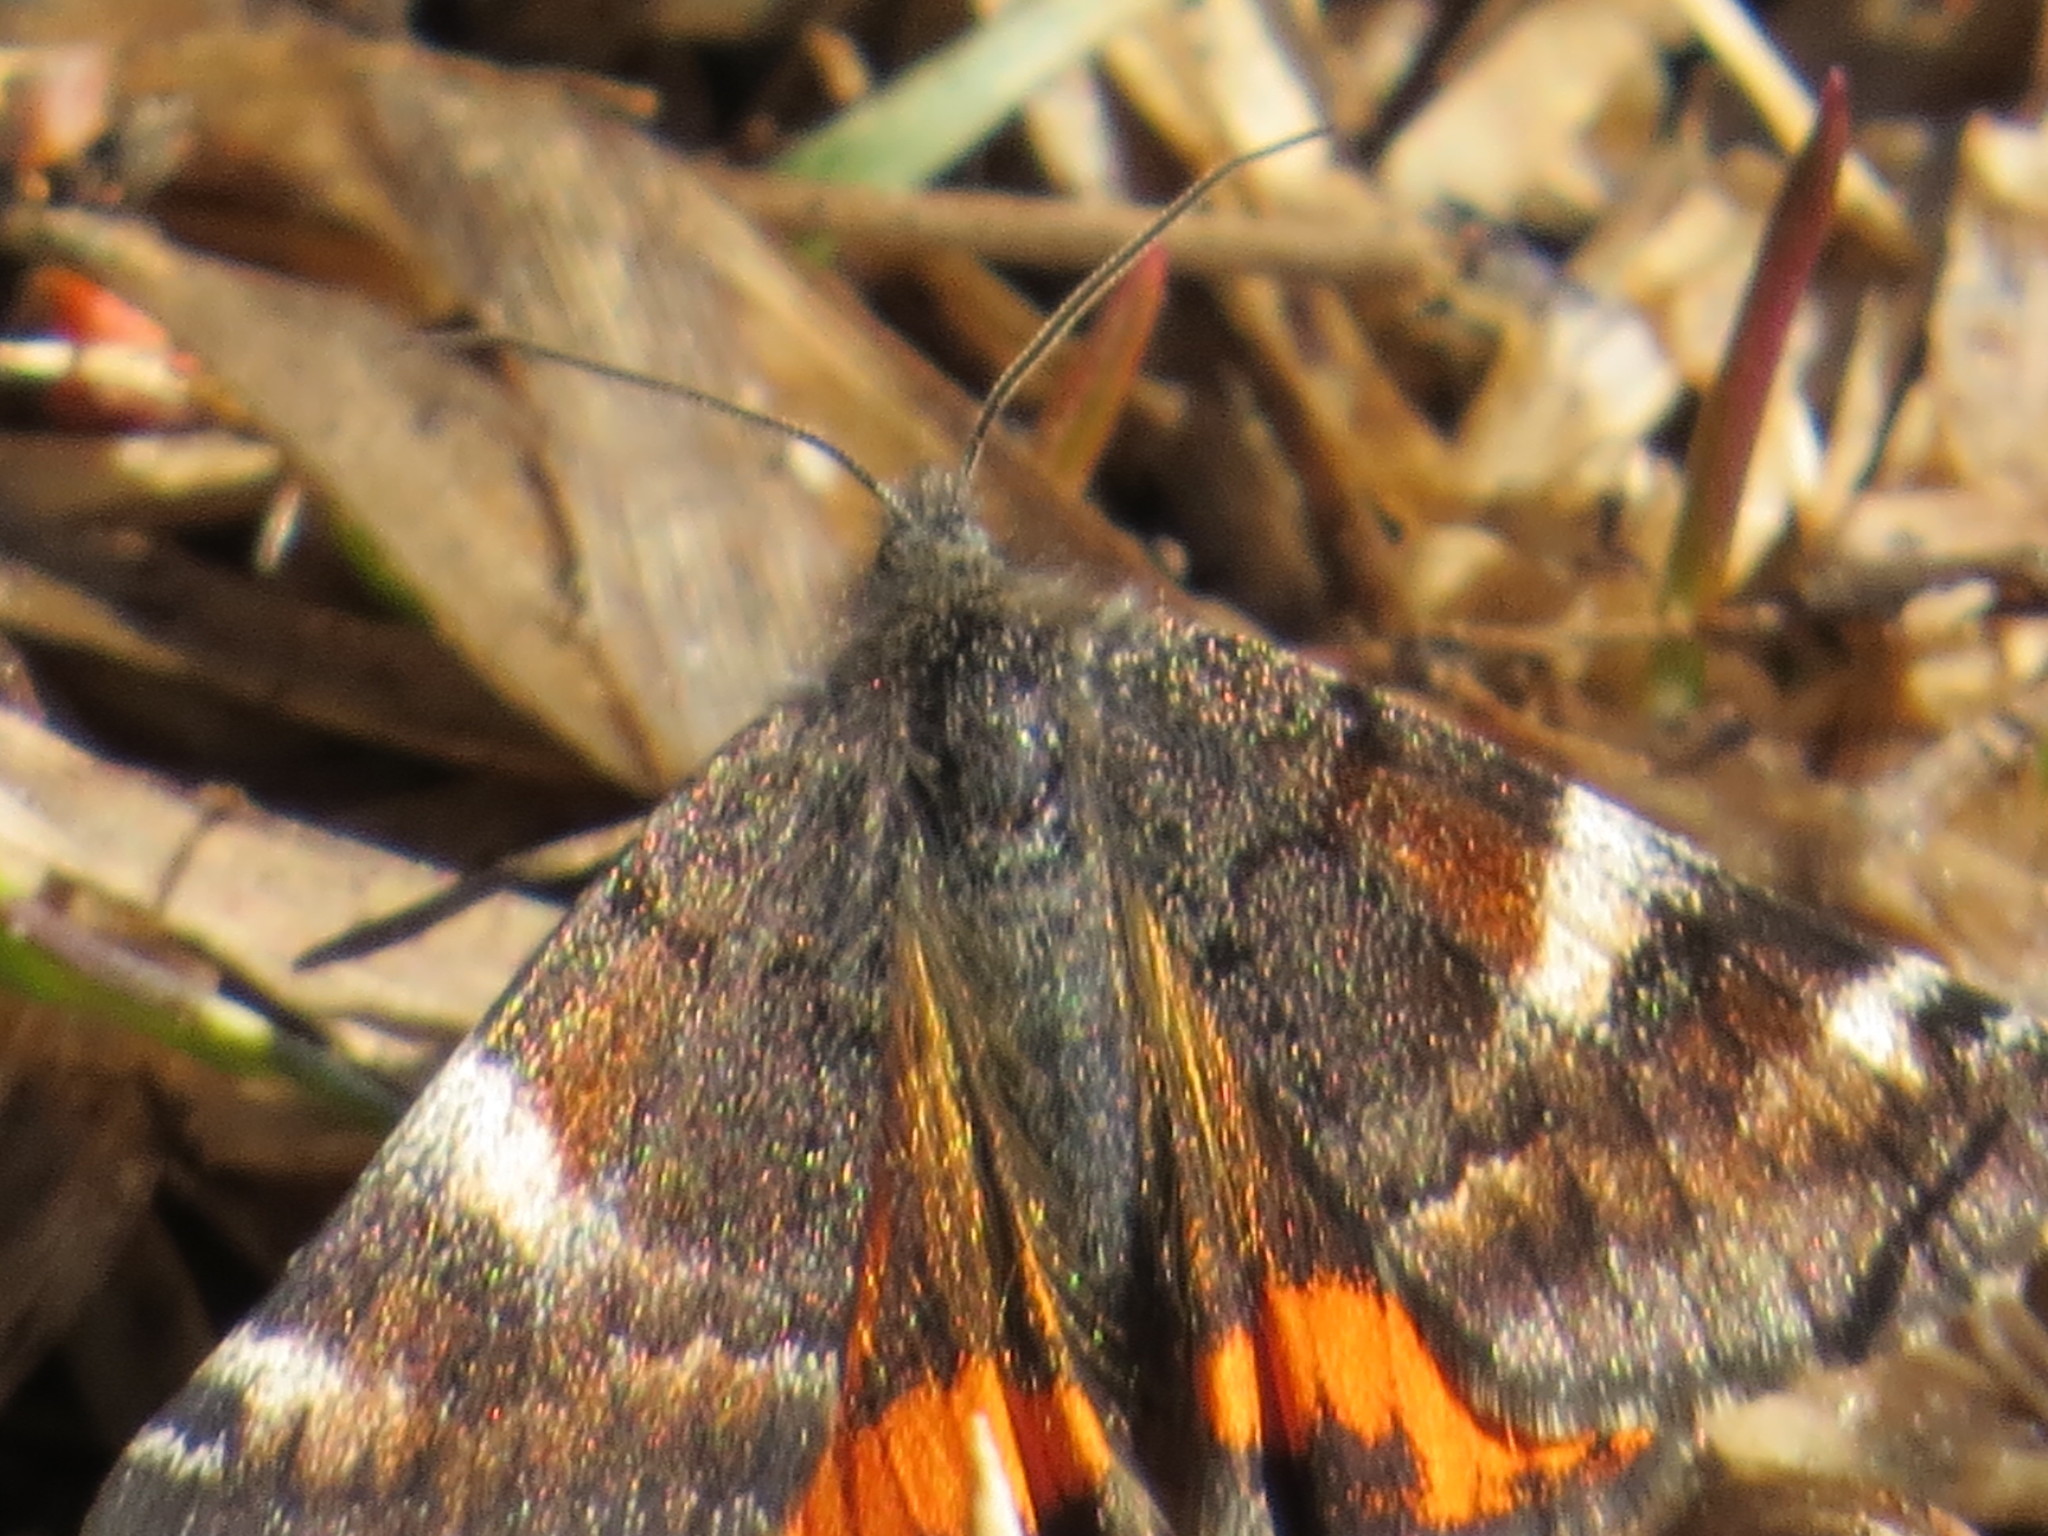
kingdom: Animalia
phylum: Arthropoda
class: Insecta
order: Lepidoptera
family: Geometridae
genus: Archiearis
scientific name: Archiearis infans
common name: First born geometer
